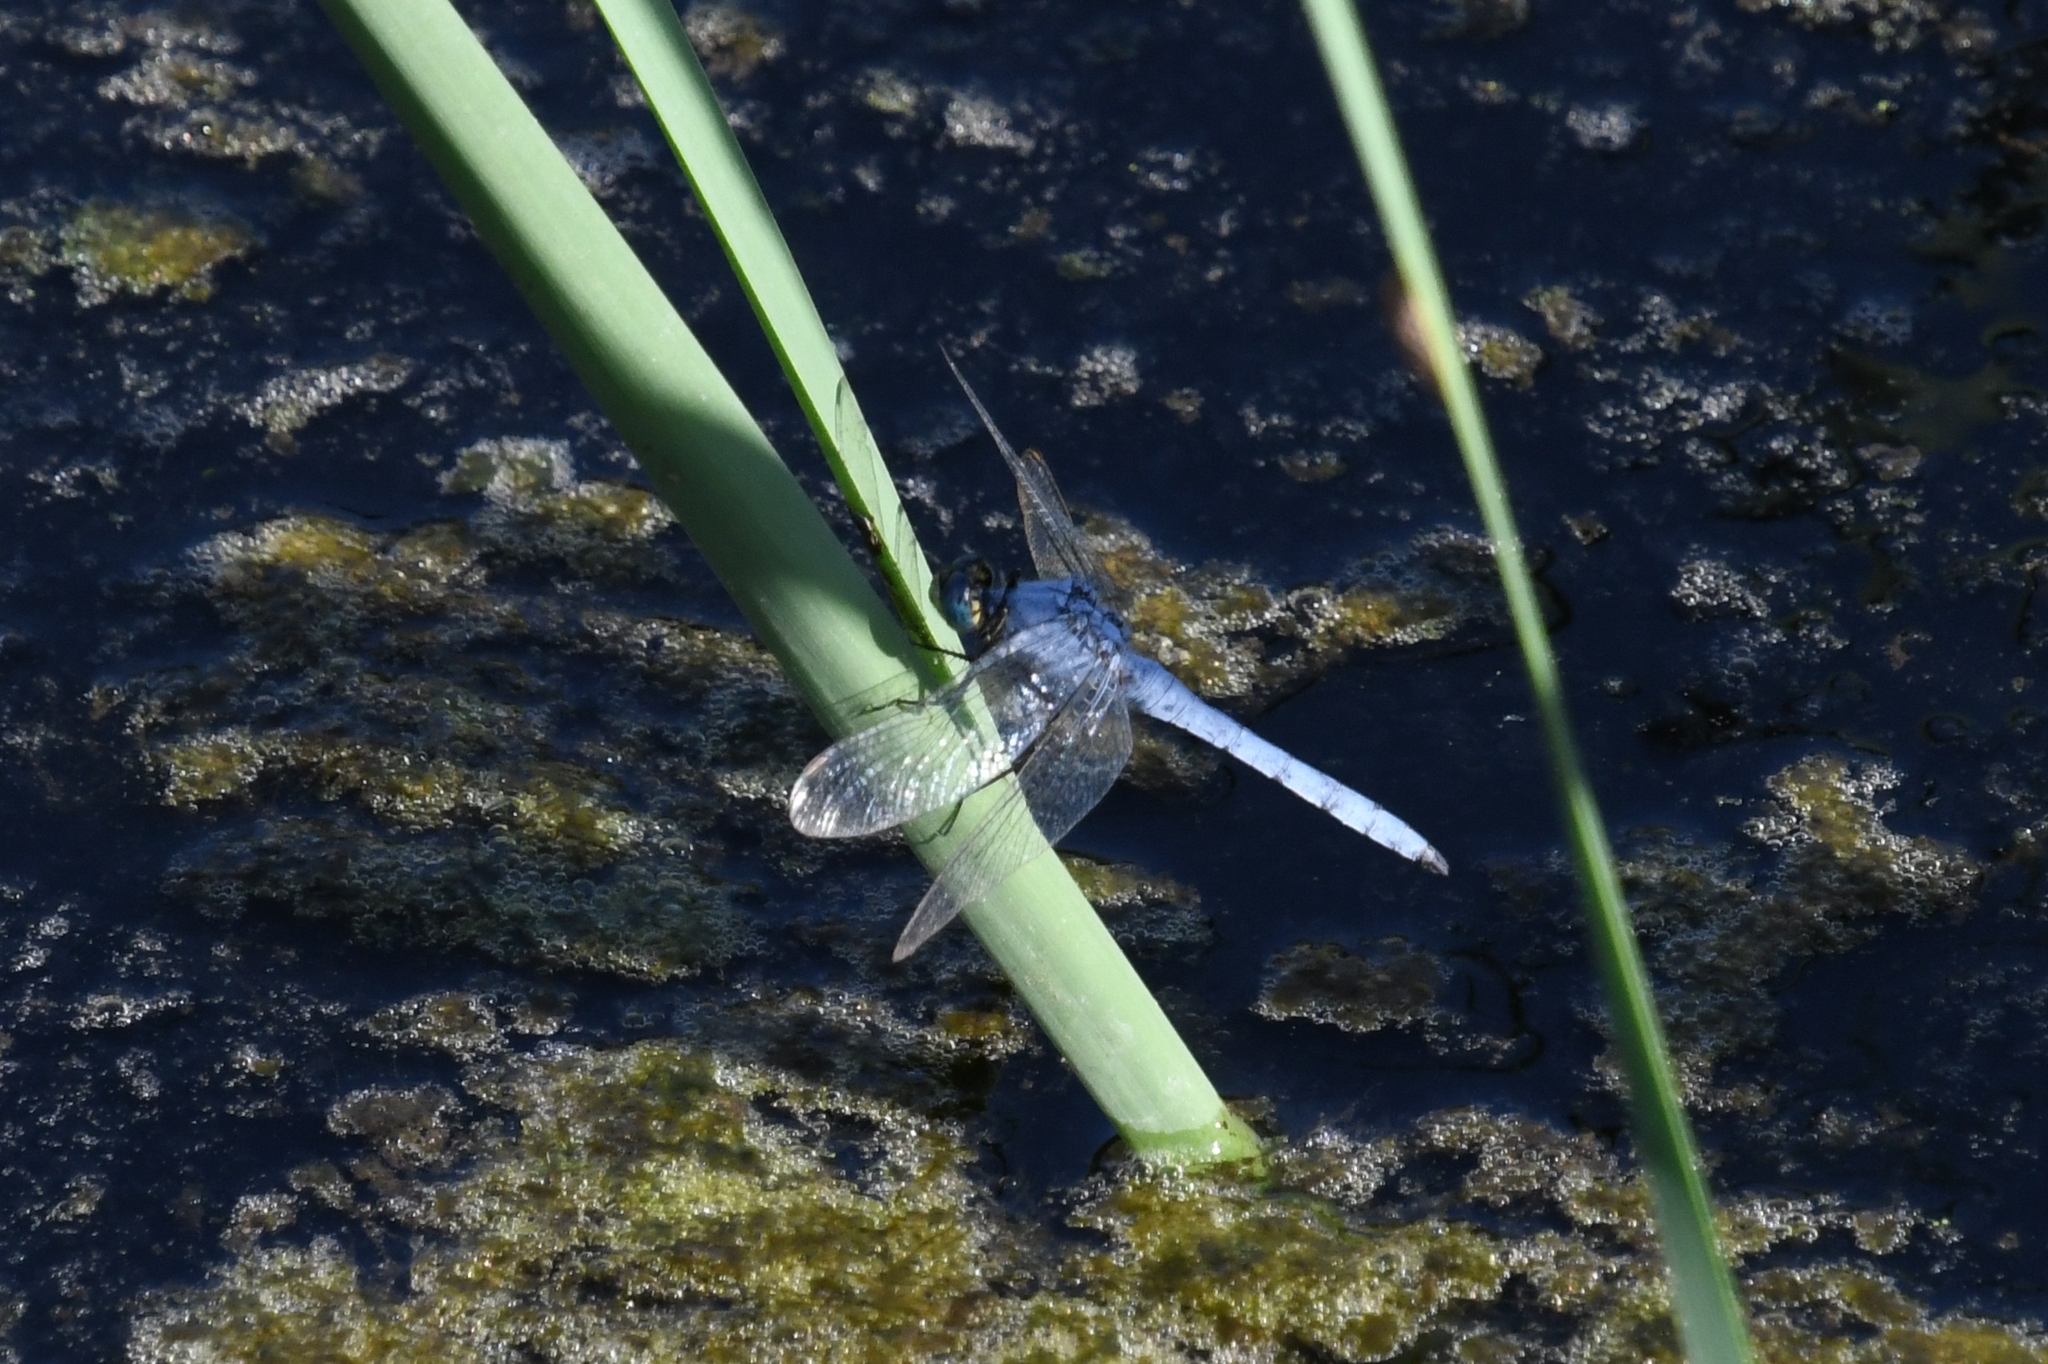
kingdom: Animalia
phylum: Arthropoda
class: Insecta
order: Odonata
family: Libellulidae
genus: Erythemis
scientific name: Erythemis collocata
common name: Western pondhawk
